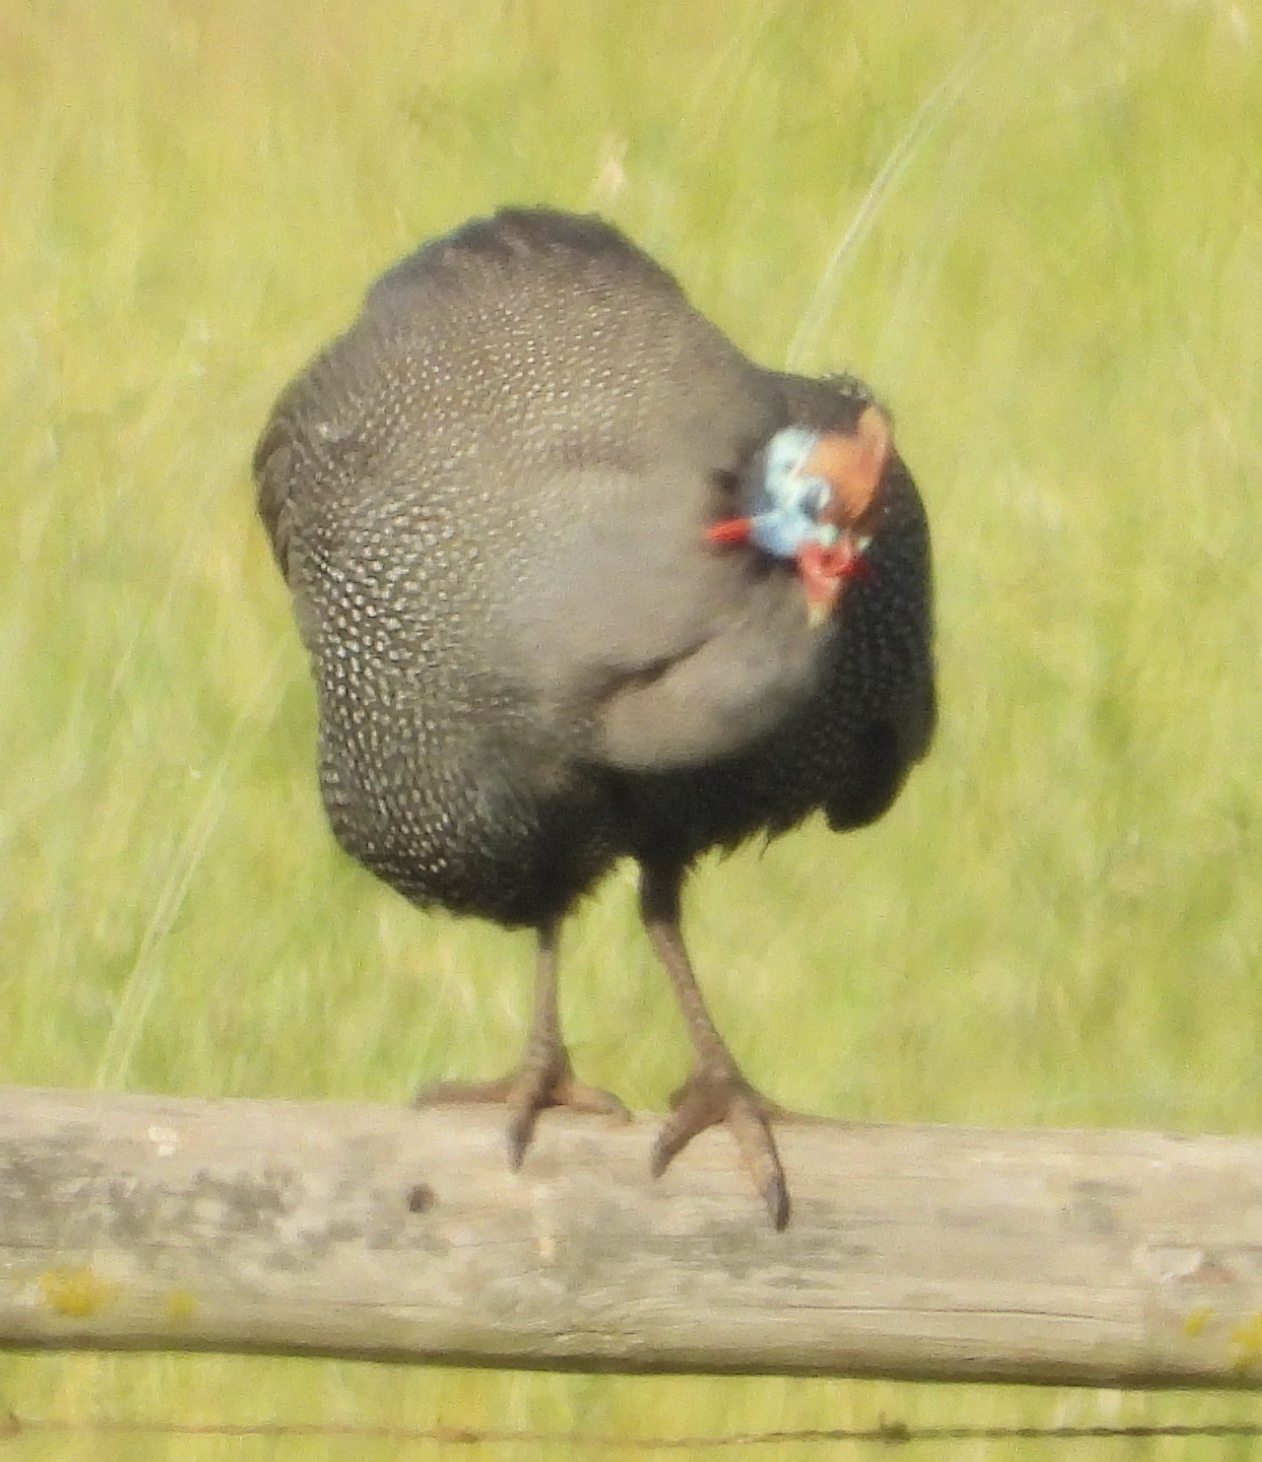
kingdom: Animalia
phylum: Chordata
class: Aves
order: Galliformes
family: Numididae
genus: Numida
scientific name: Numida meleagris
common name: Helmeted guineafowl
